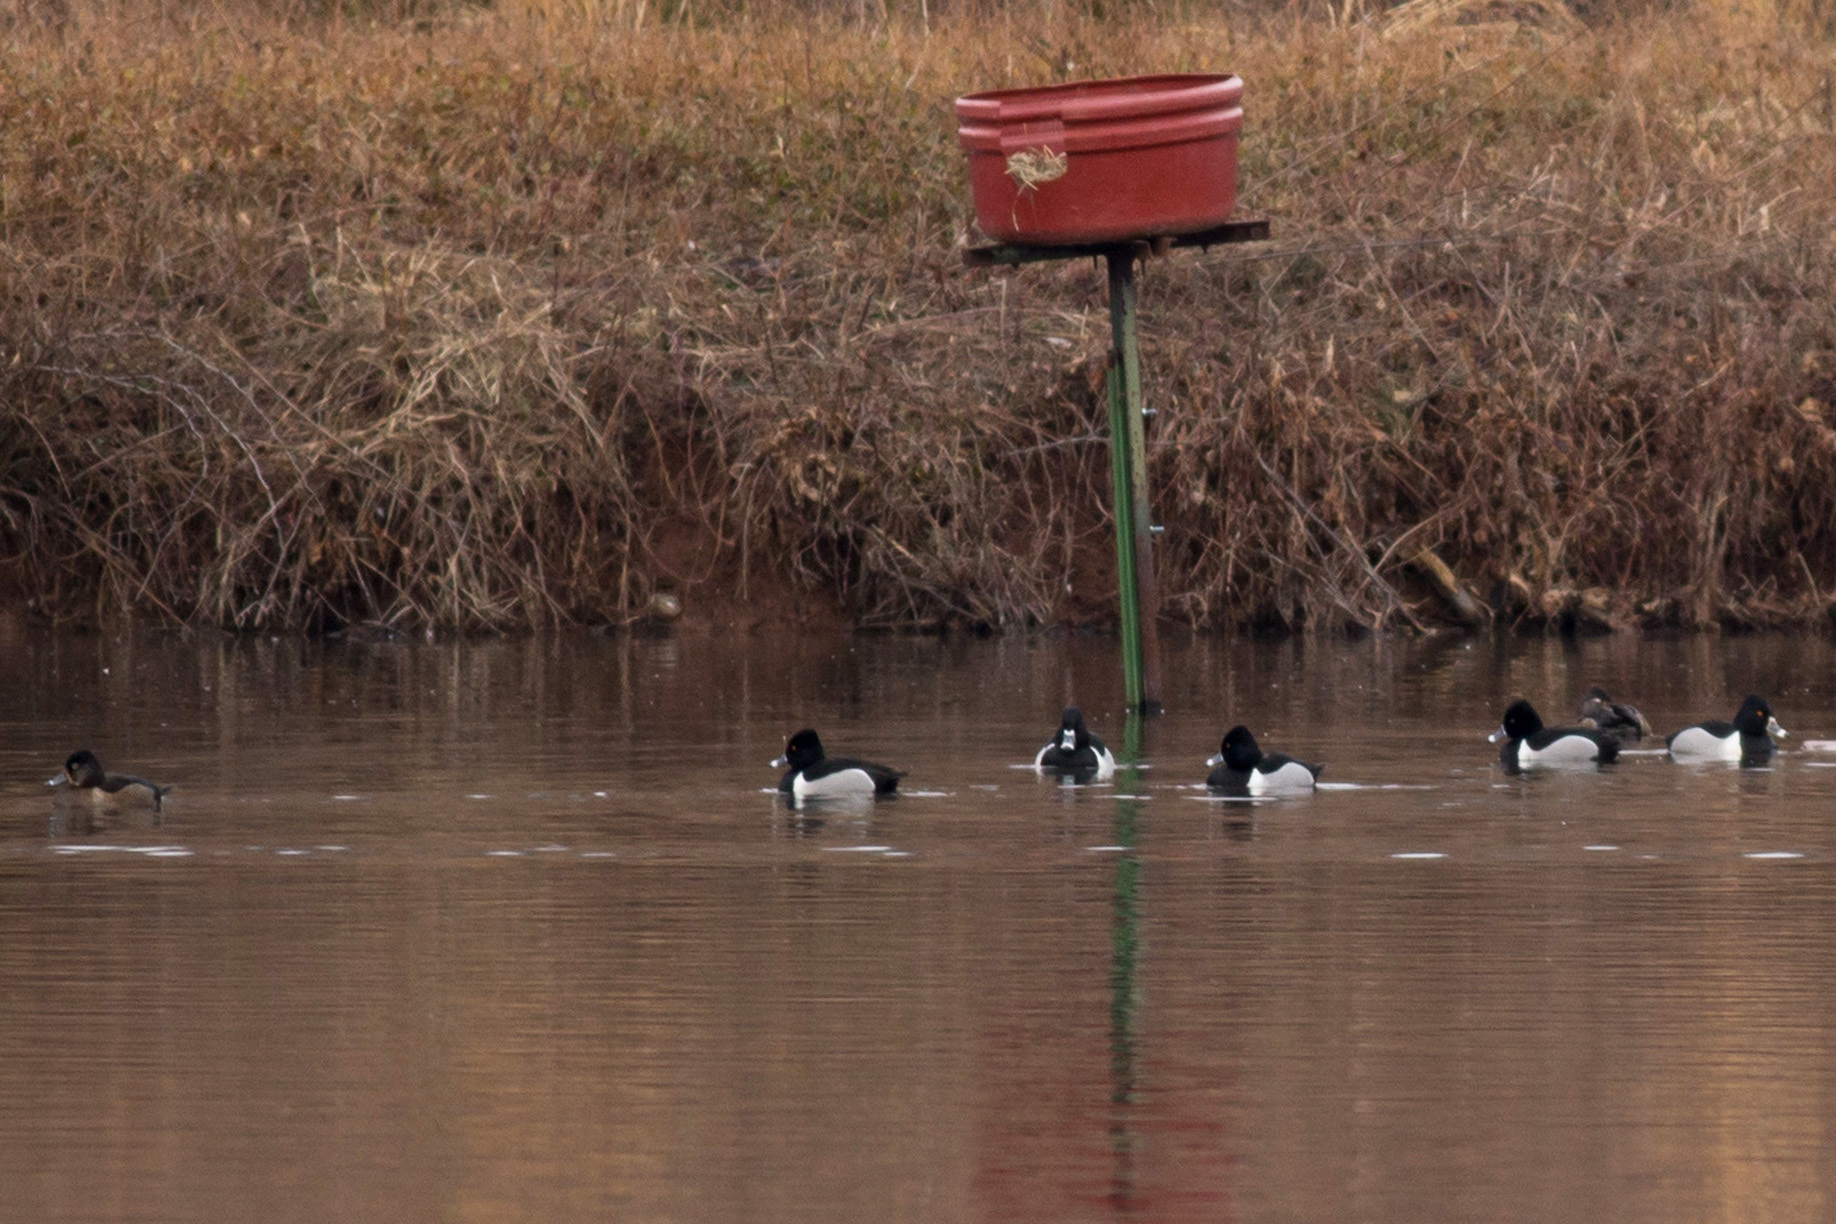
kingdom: Animalia
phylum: Chordata
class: Aves
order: Anseriformes
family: Anatidae
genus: Aythya
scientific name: Aythya collaris
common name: Ring-necked duck
